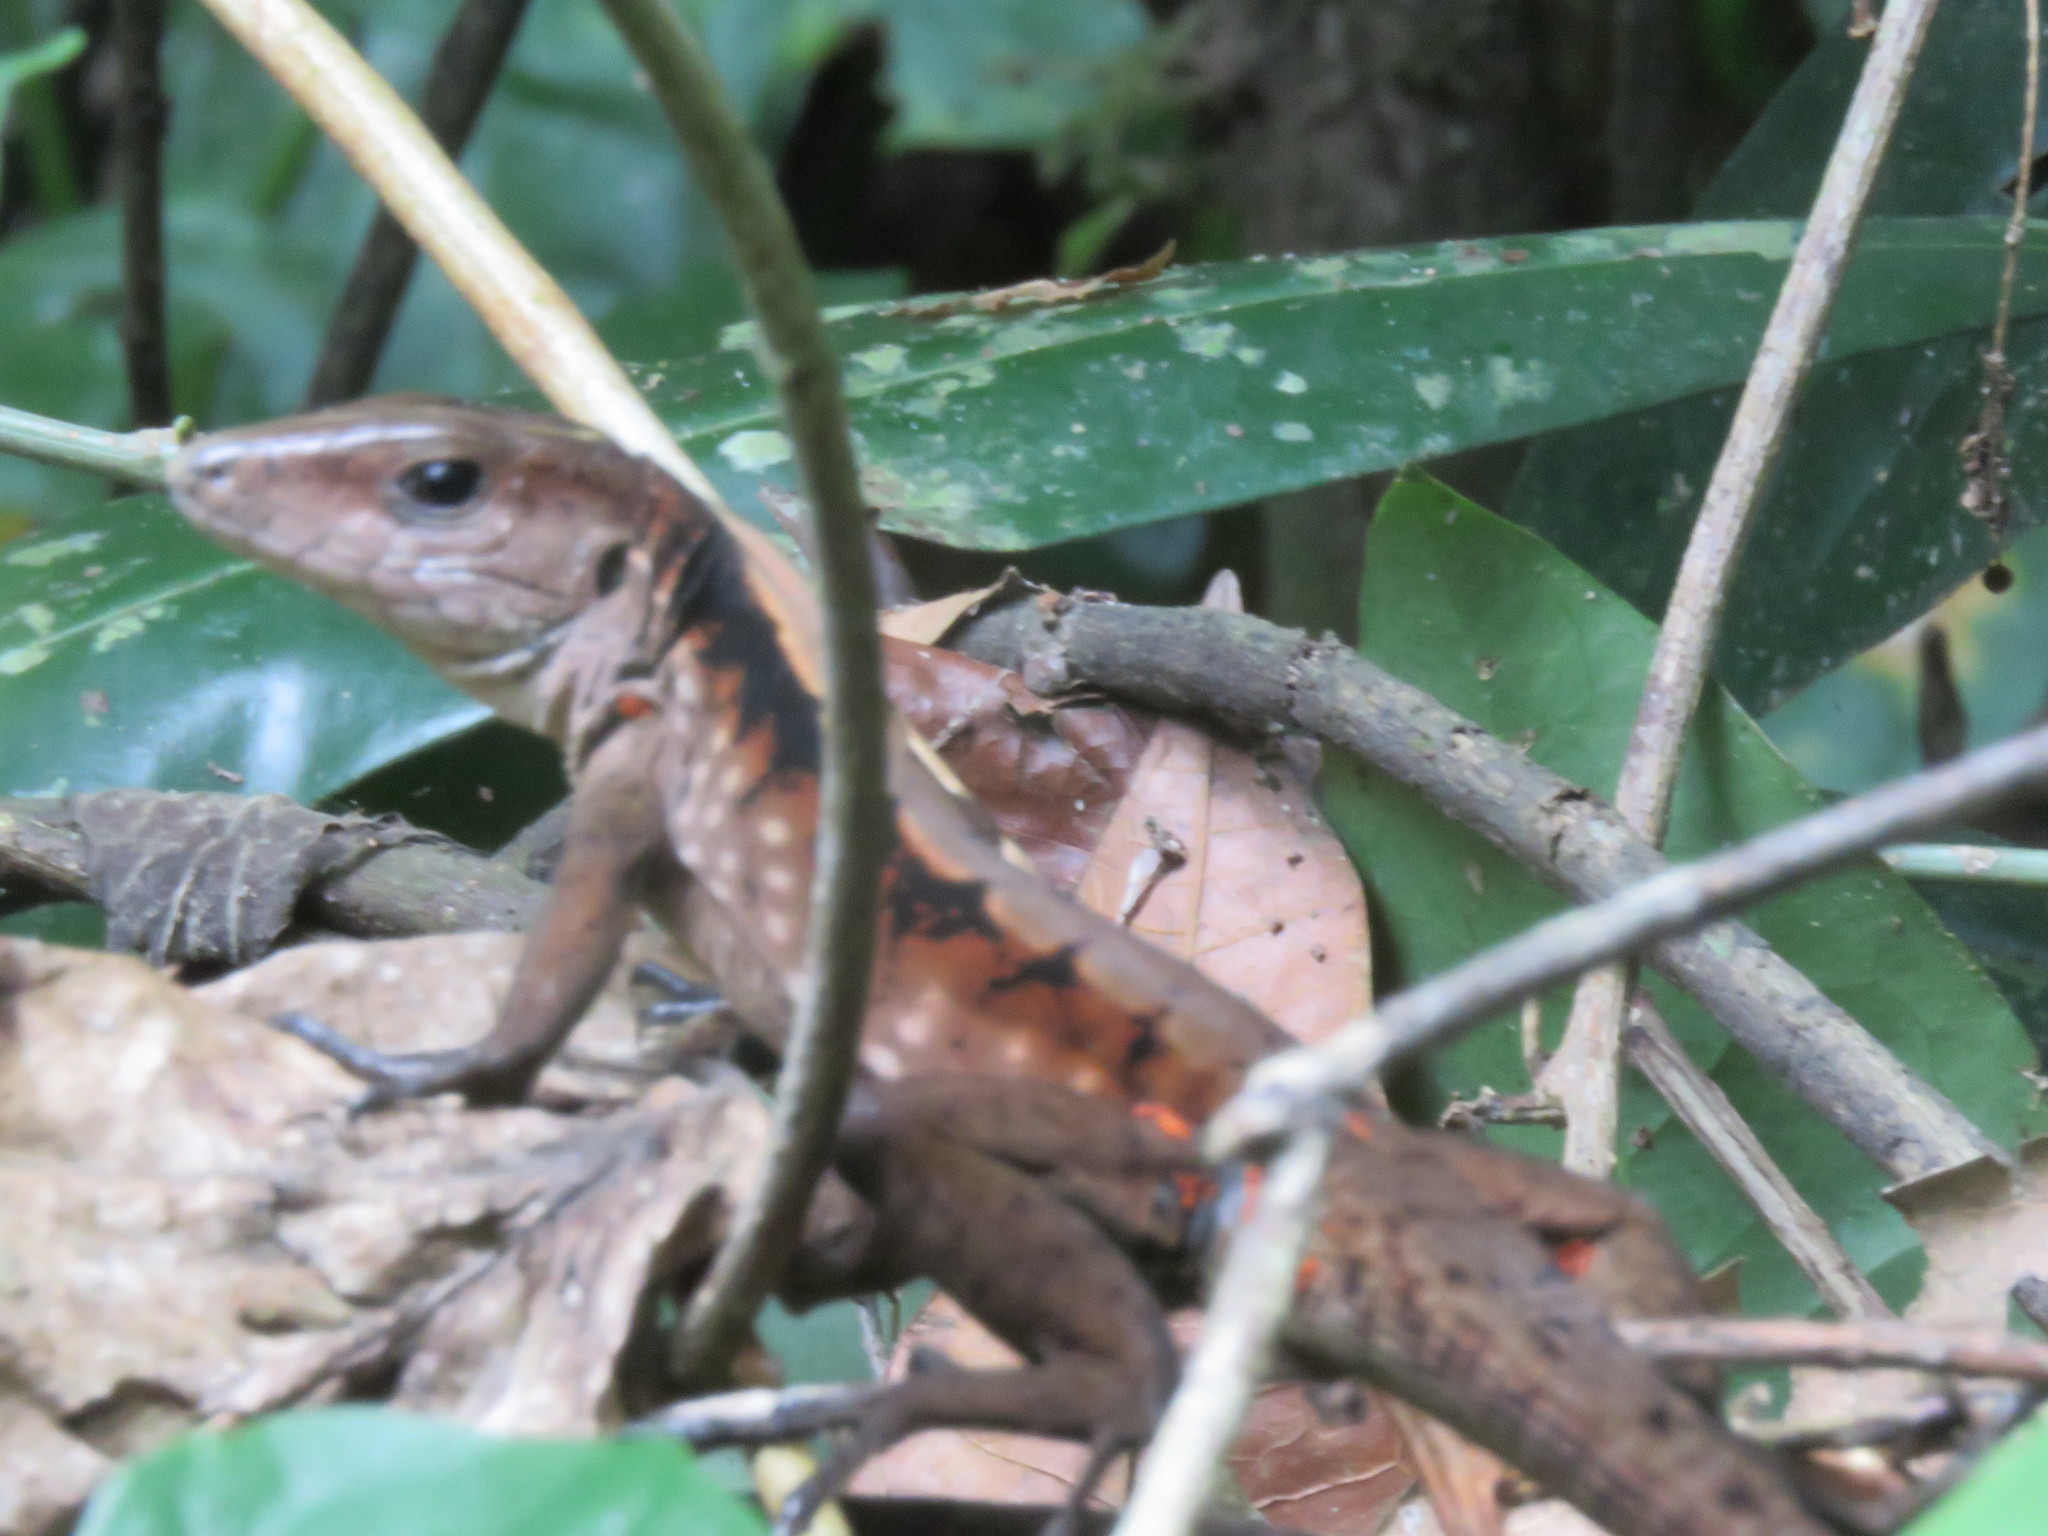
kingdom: Animalia
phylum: Chordata
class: Squamata
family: Teiidae
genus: Kentropyx
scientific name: Kentropyx pelviceps
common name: Forest whiptail
